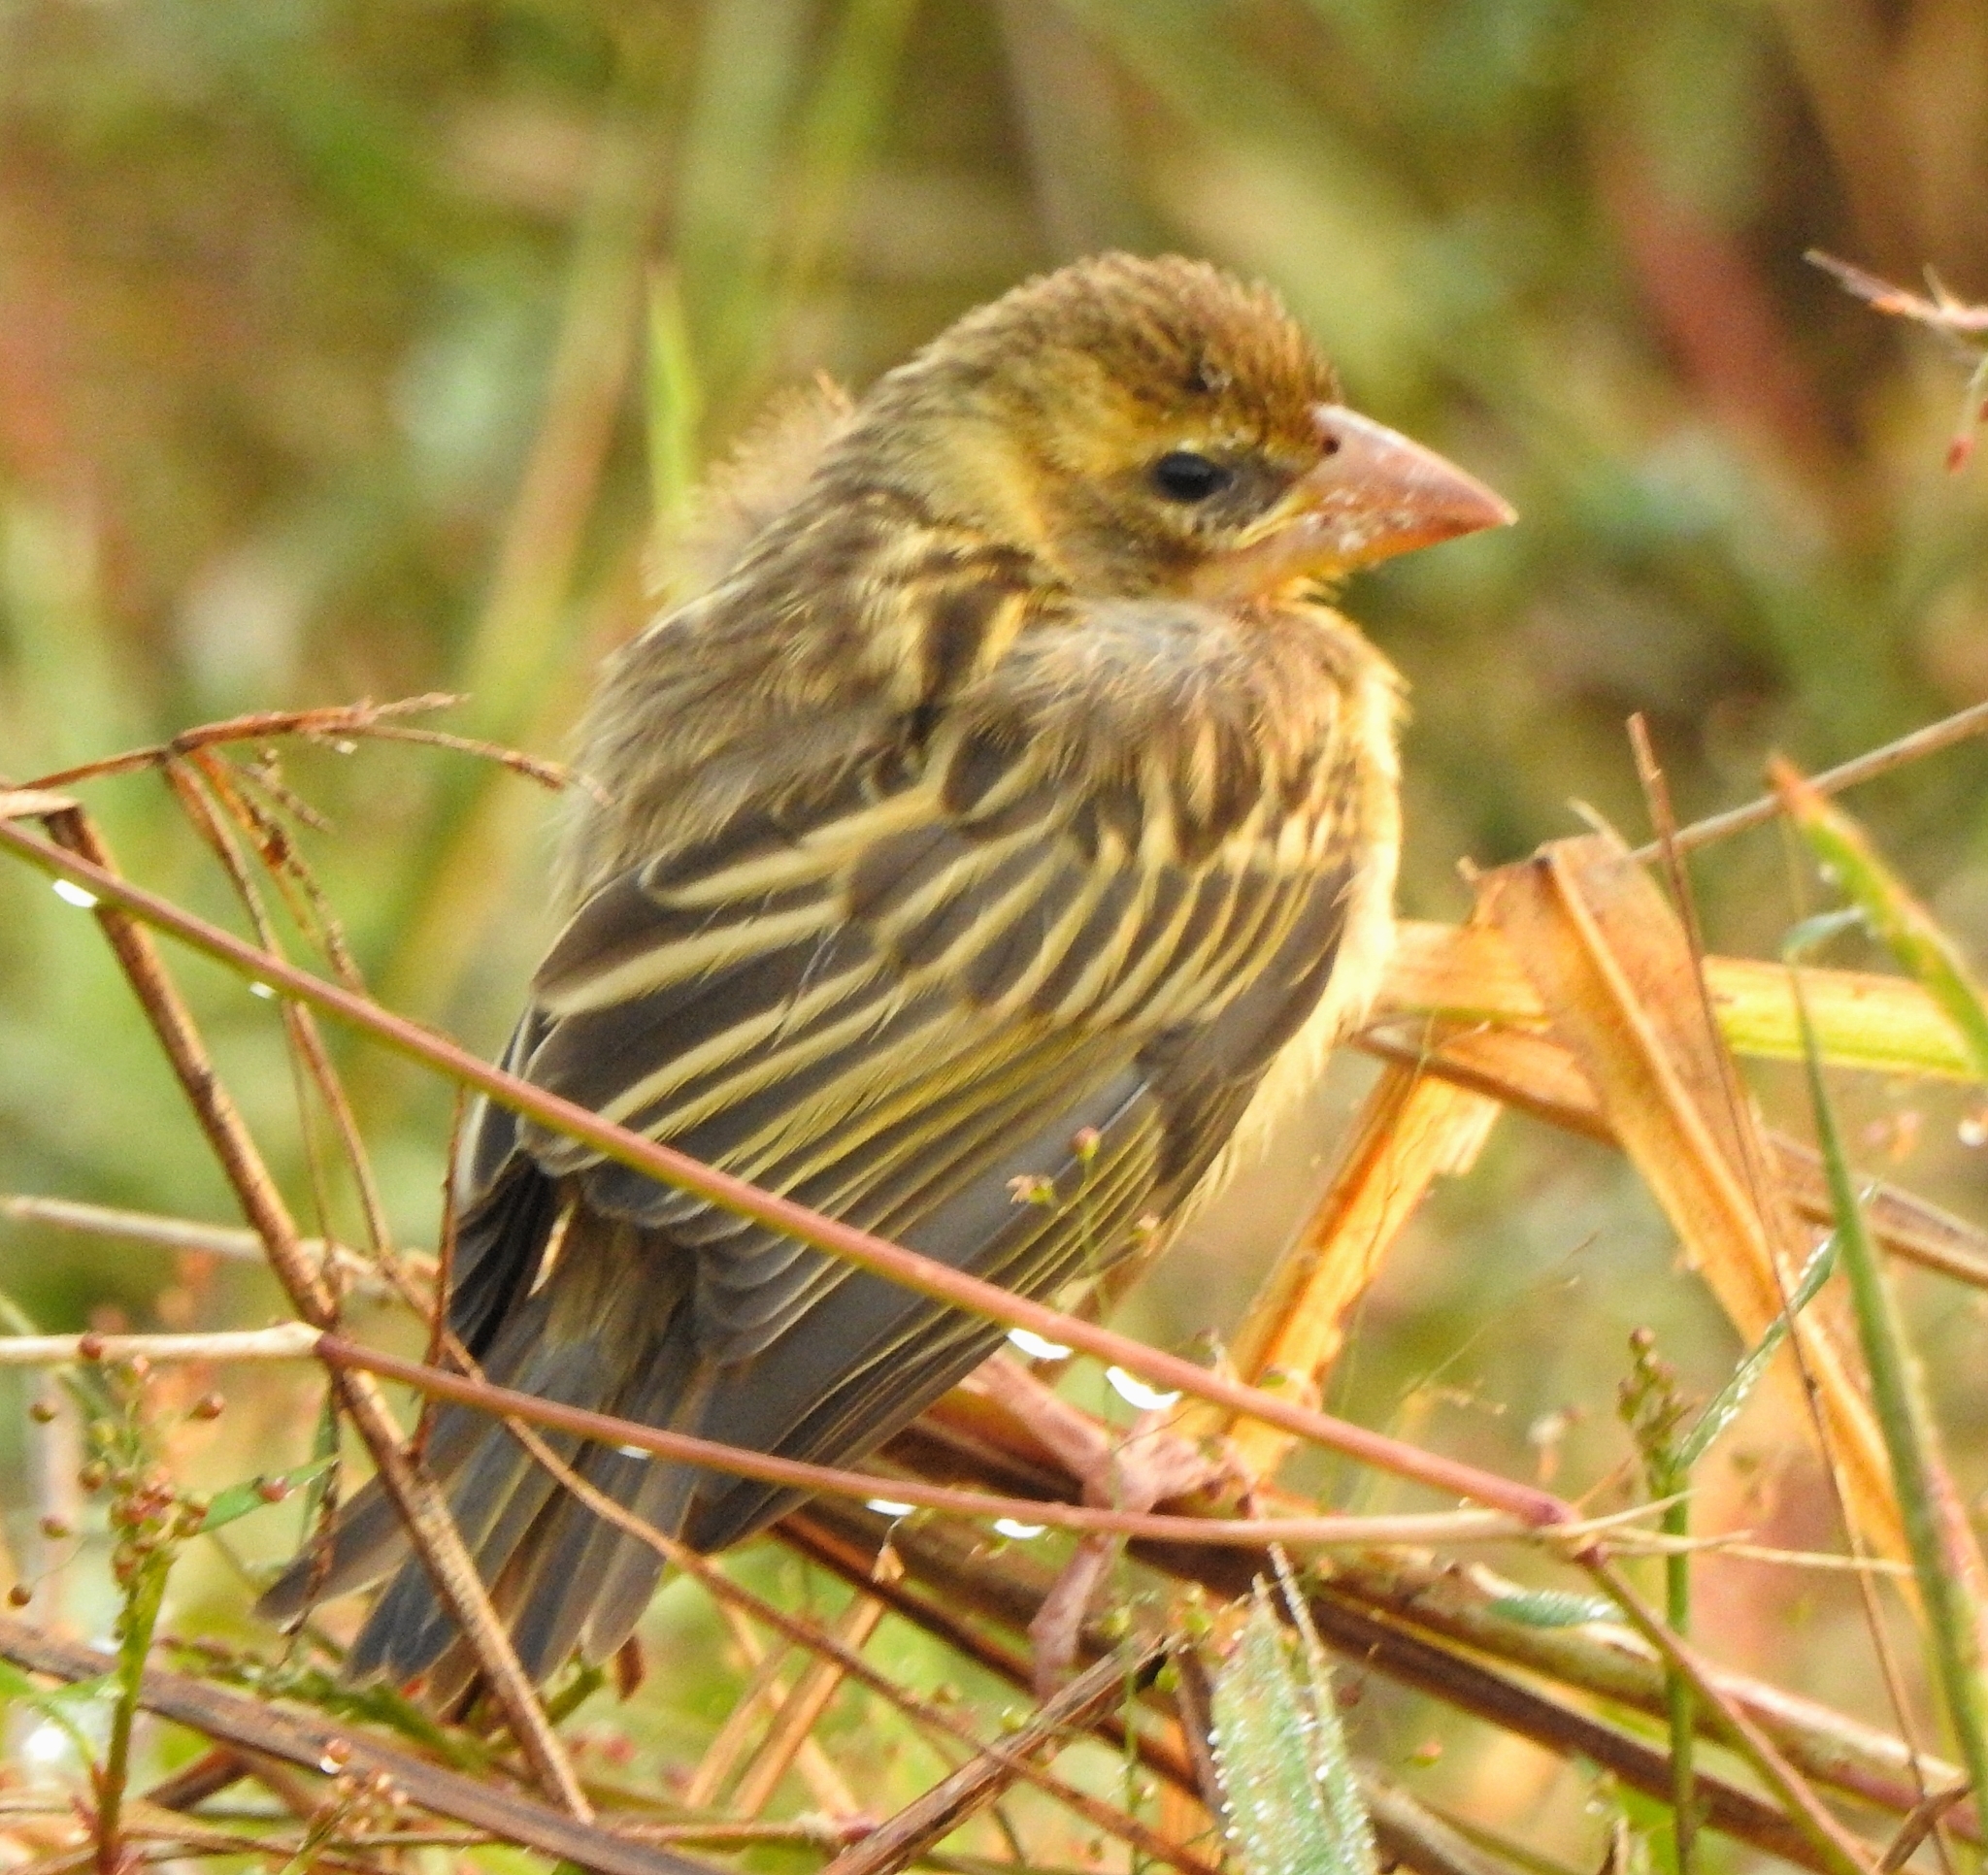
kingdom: Animalia
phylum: Chordata
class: Aves
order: Passeriformes
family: Ploceidae
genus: Ploceus
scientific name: Ploceus philippinus
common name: Baya weaver
